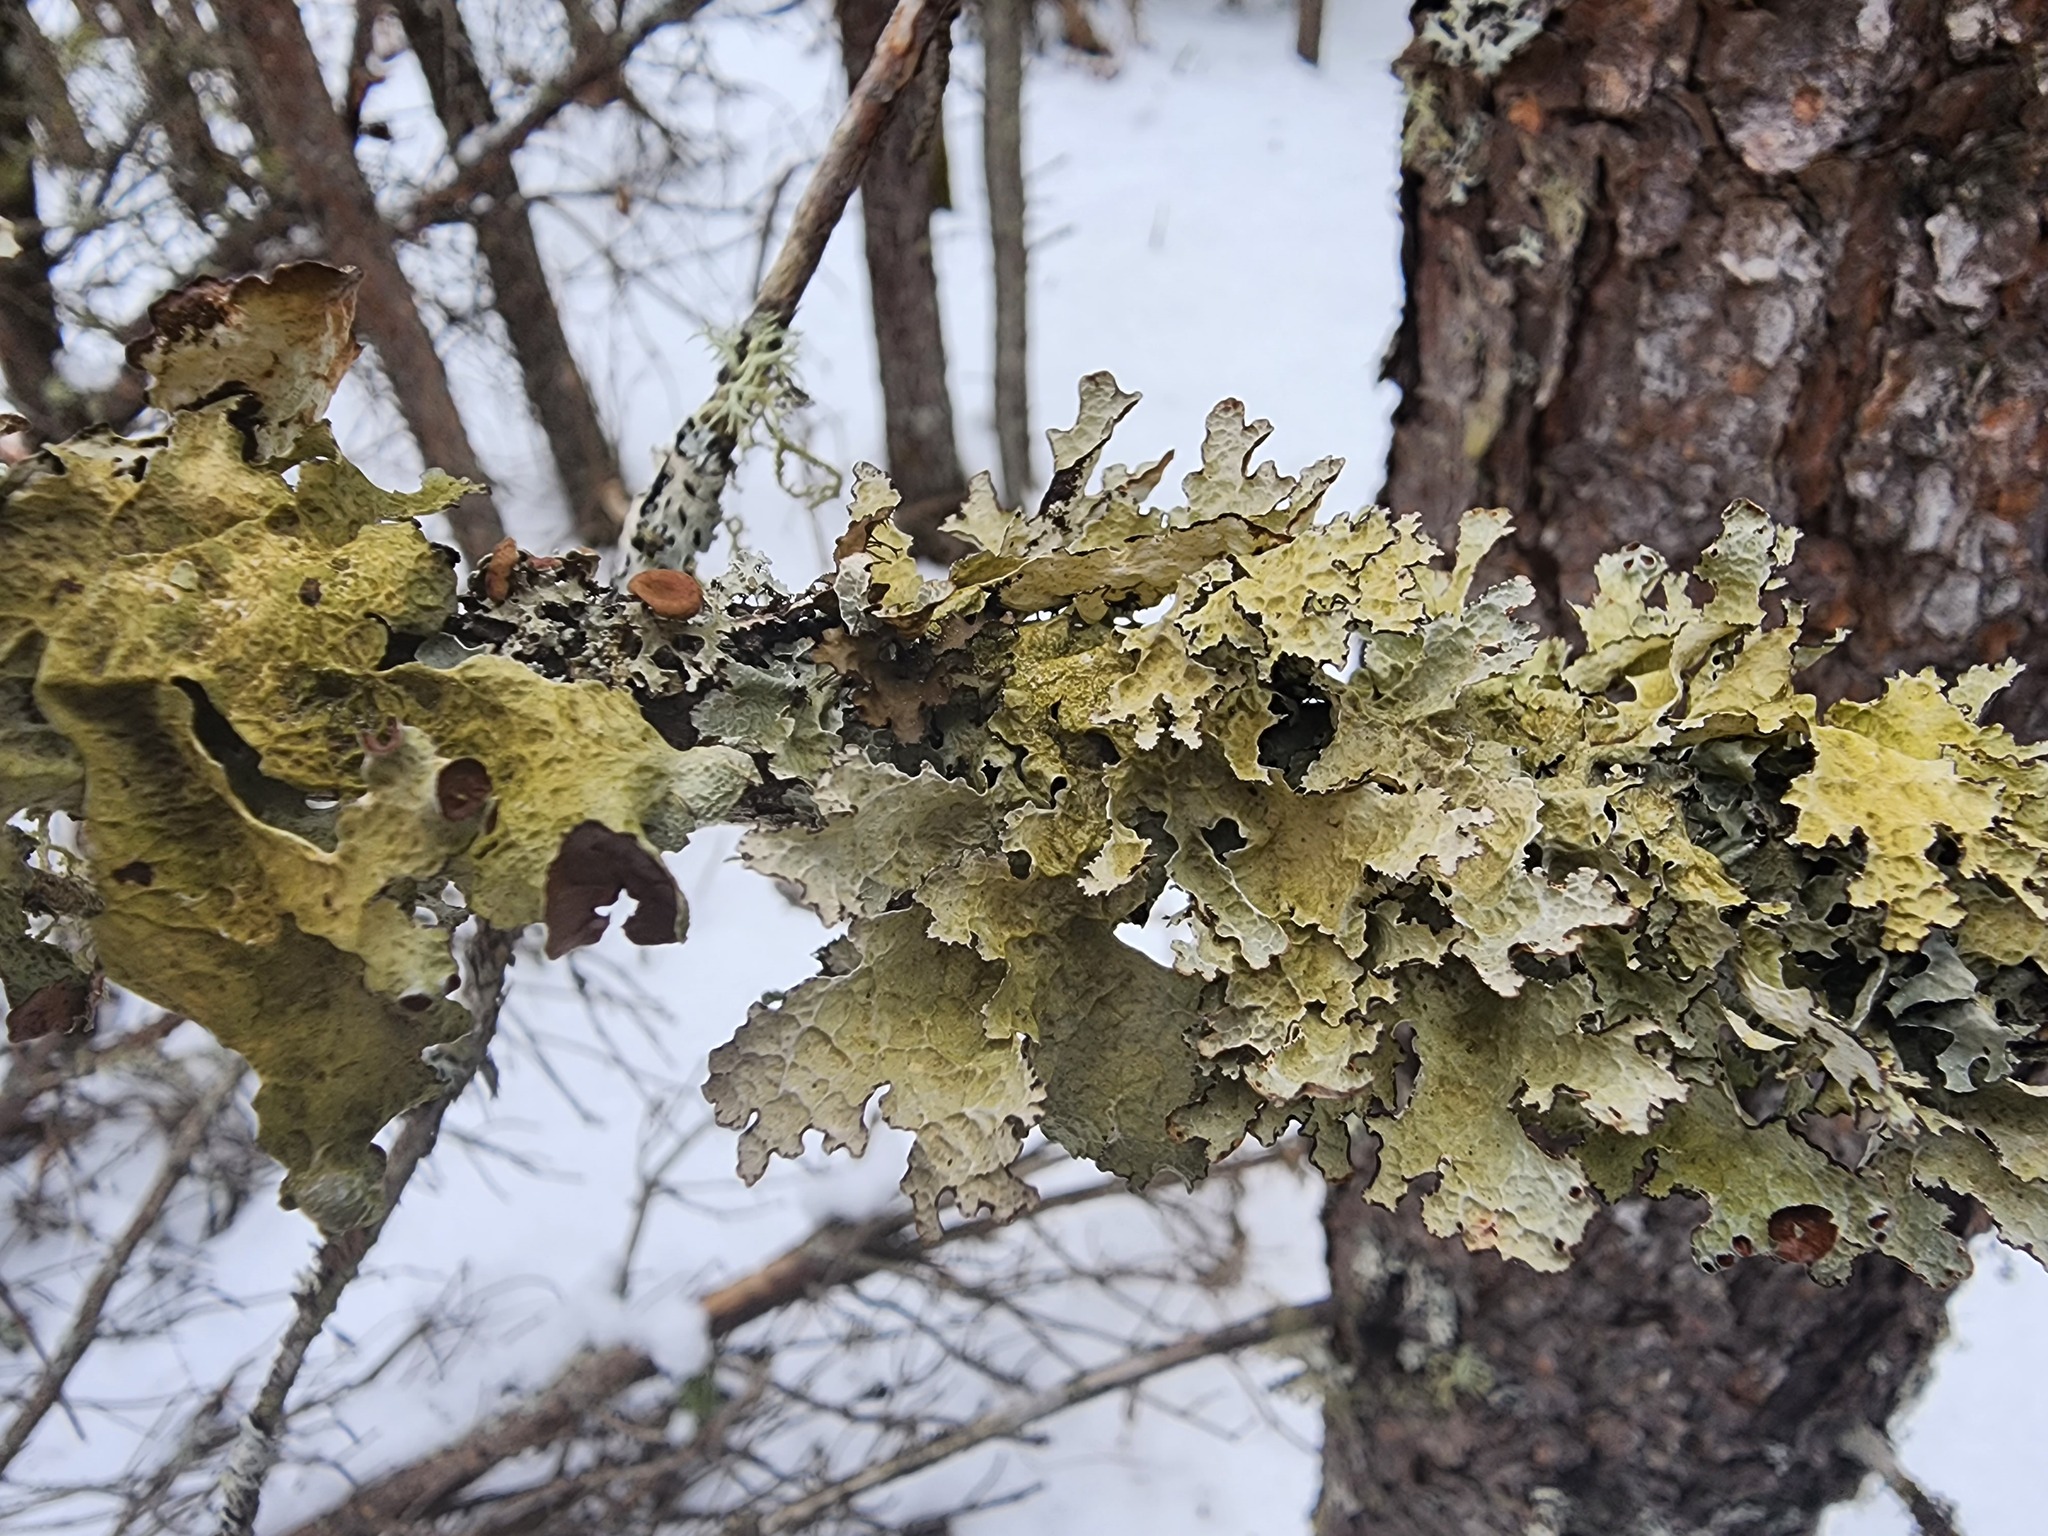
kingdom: Fungi
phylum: Ascomycota
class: Lecanoromycetes
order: Lecanorales
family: Parmeliaceae
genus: Platismatia
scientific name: Platismatia tuckermanii
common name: Crumpled rag lichen
